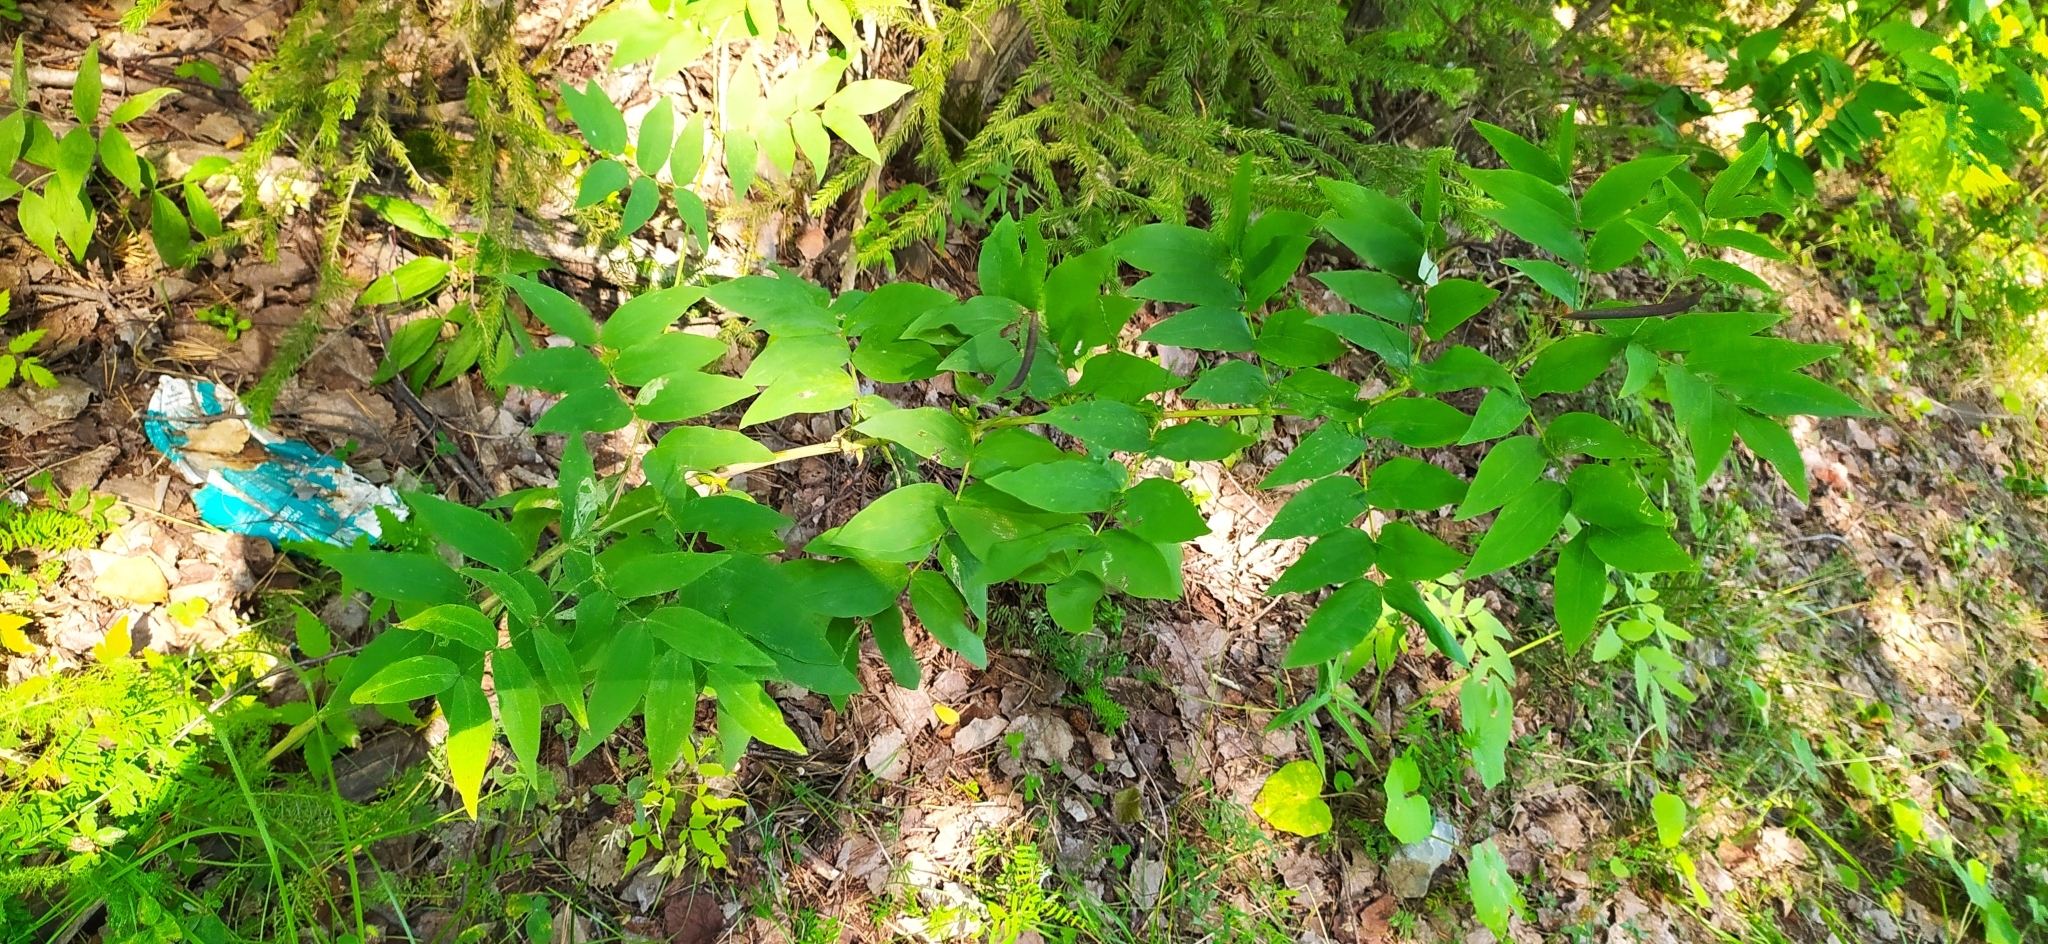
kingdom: Plantae
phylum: Tracheophyta
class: Magnoliopsida
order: Fabales
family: Fabaceae
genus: Lathyrus
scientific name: Lathyrus gmelinii
